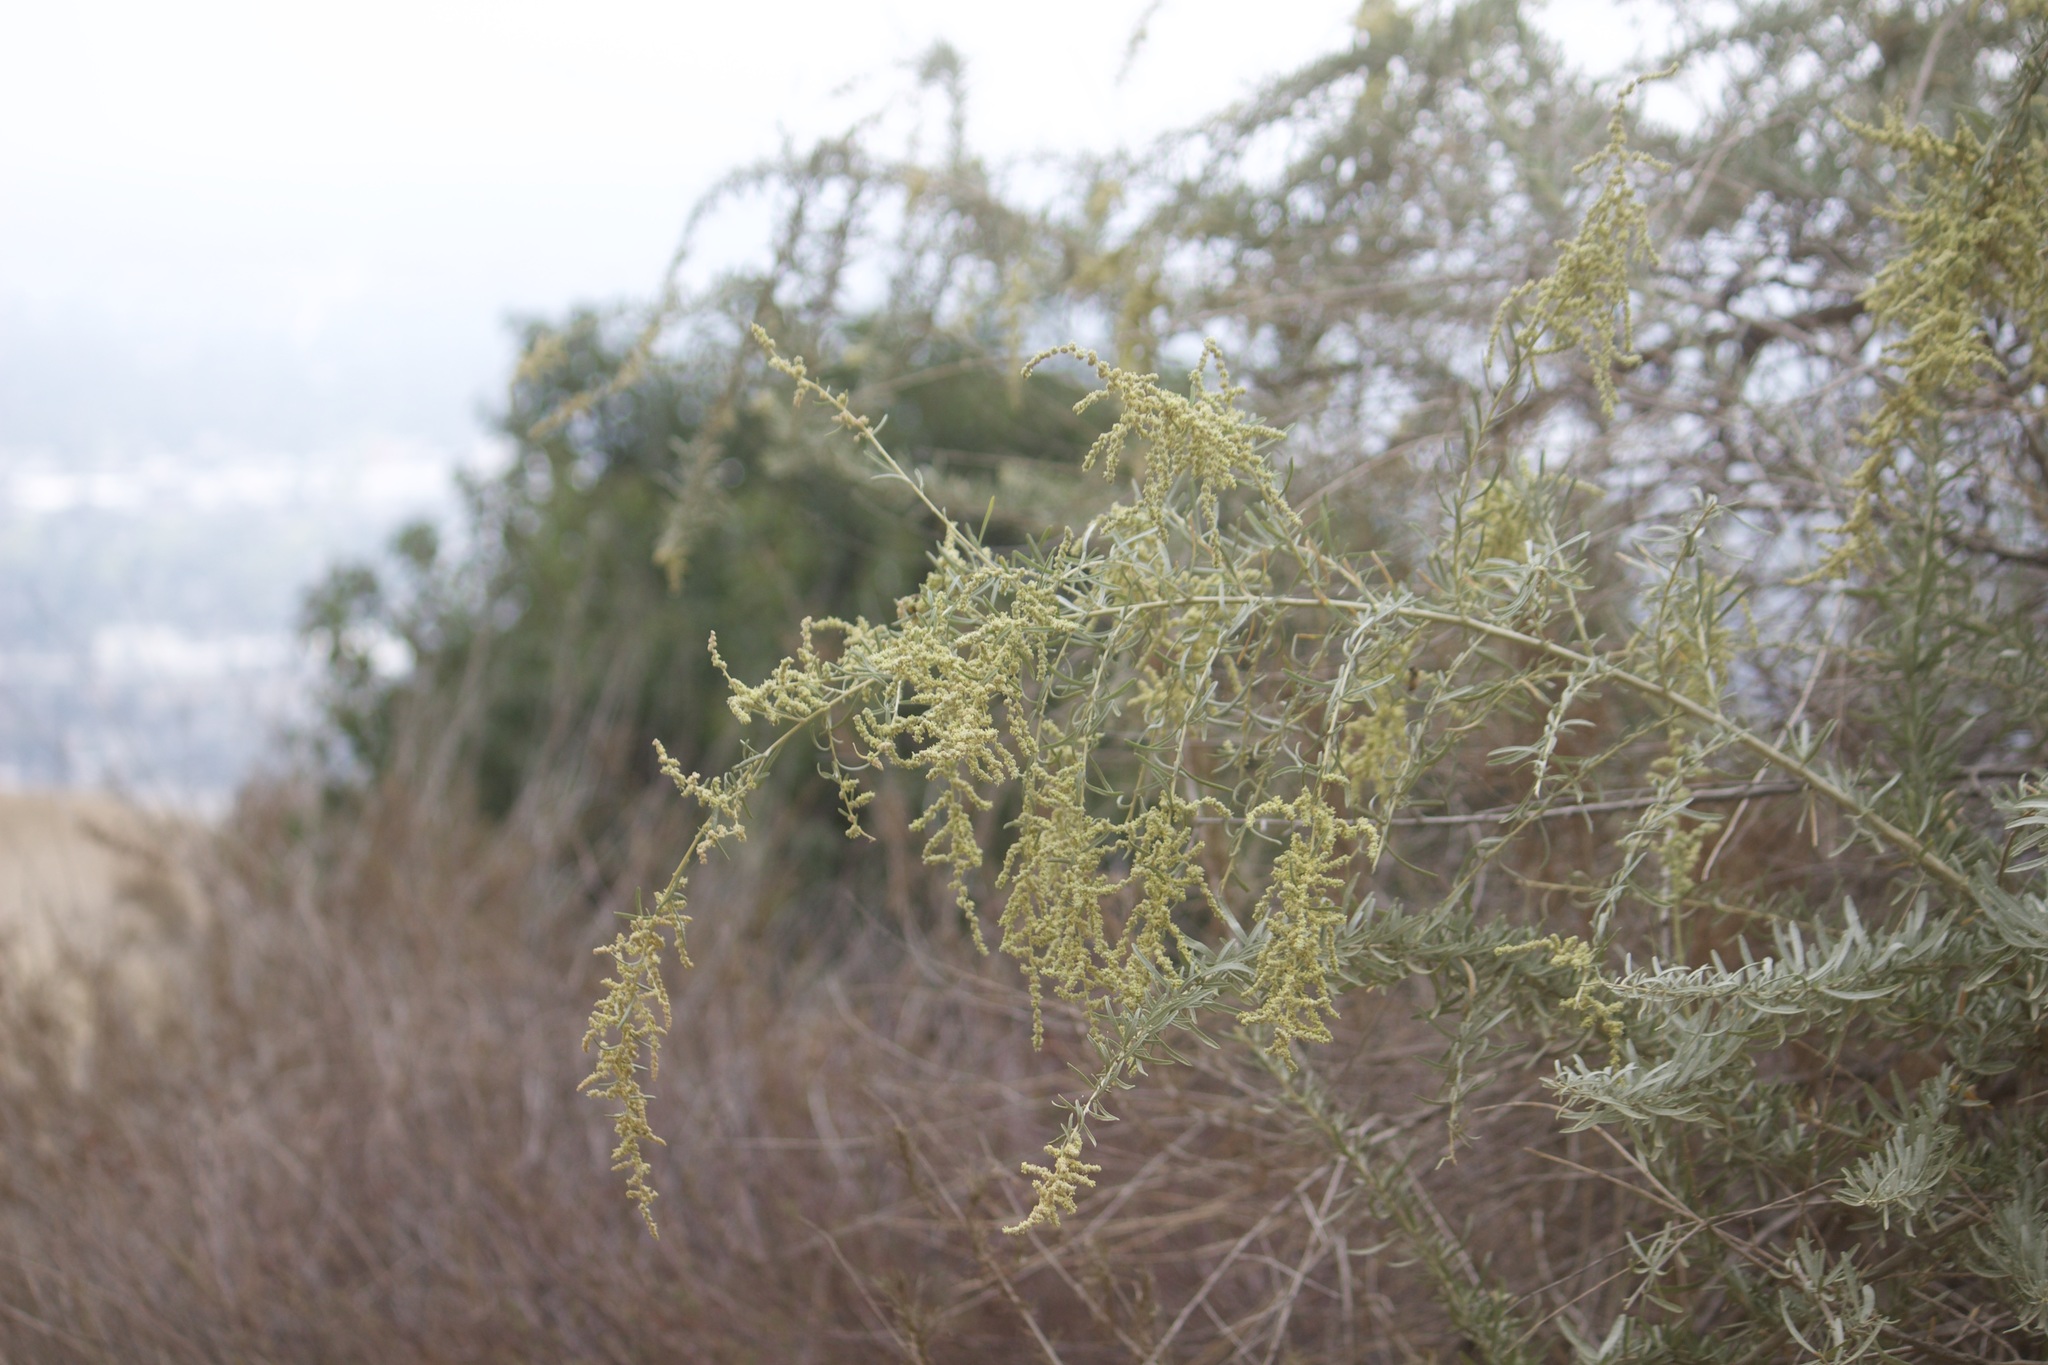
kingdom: Plantae
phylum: Tracheophyta
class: Magnoliopsida
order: Caryophyllales
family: Amaranthaceae
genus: Atriplex
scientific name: Atriplex canescens
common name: Four-wing saltbush
